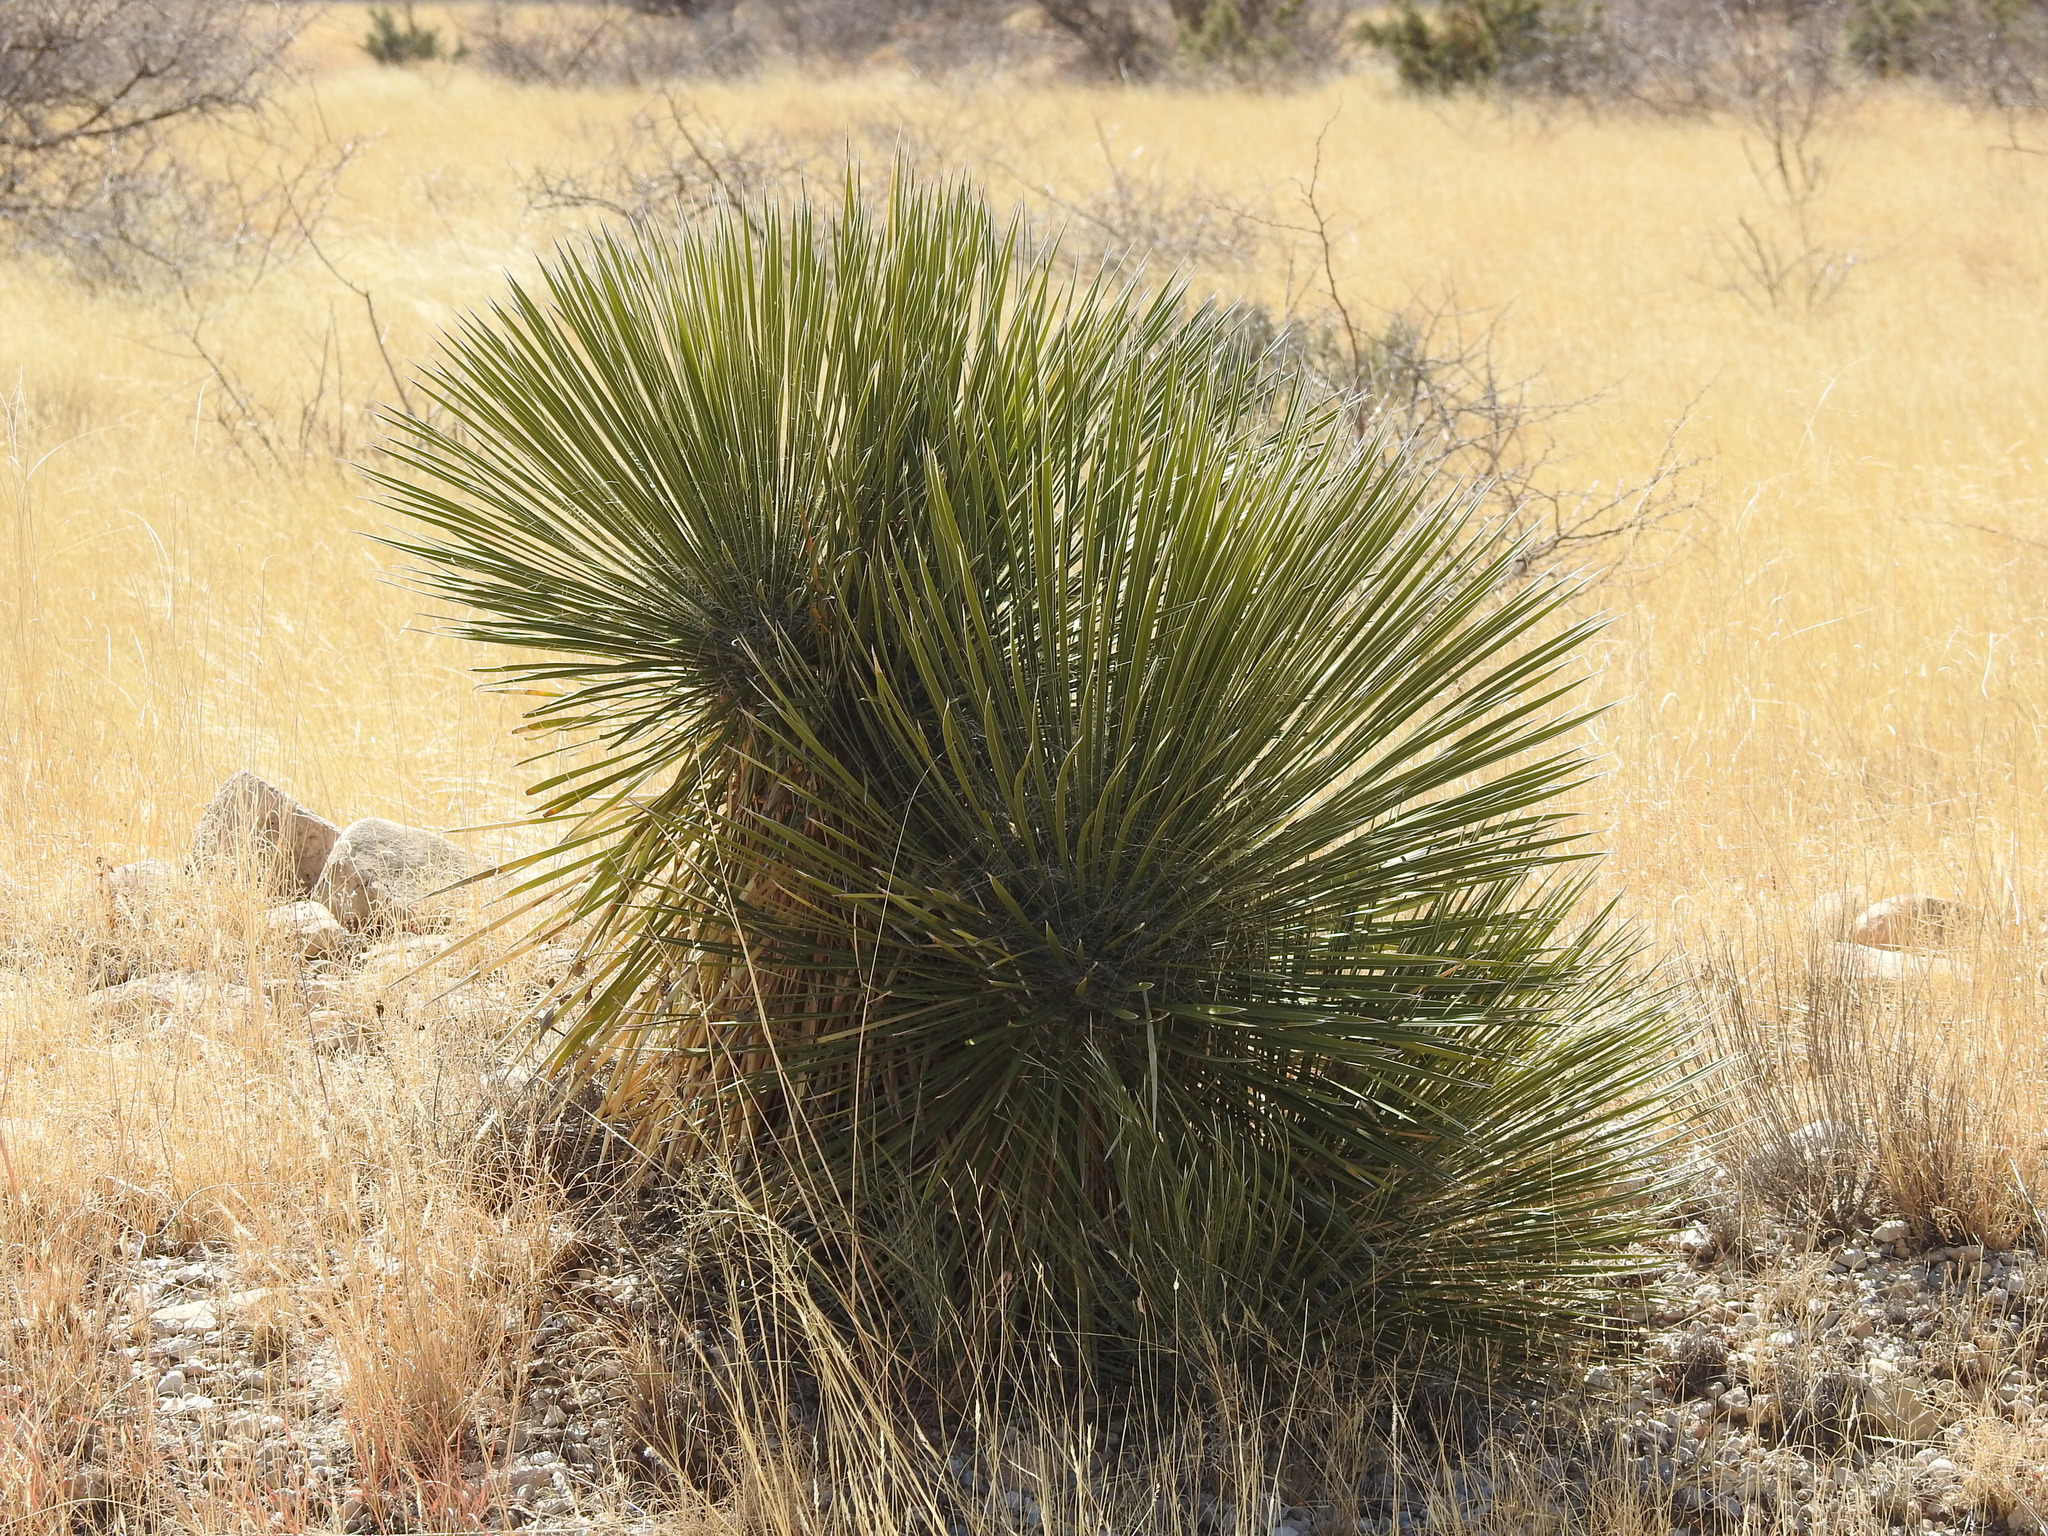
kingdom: Plantae
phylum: Tracheophyta
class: Liliopsida
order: Asparagales
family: Asparagaceae
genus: Yucca
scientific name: Yucca elata
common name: Palmella
